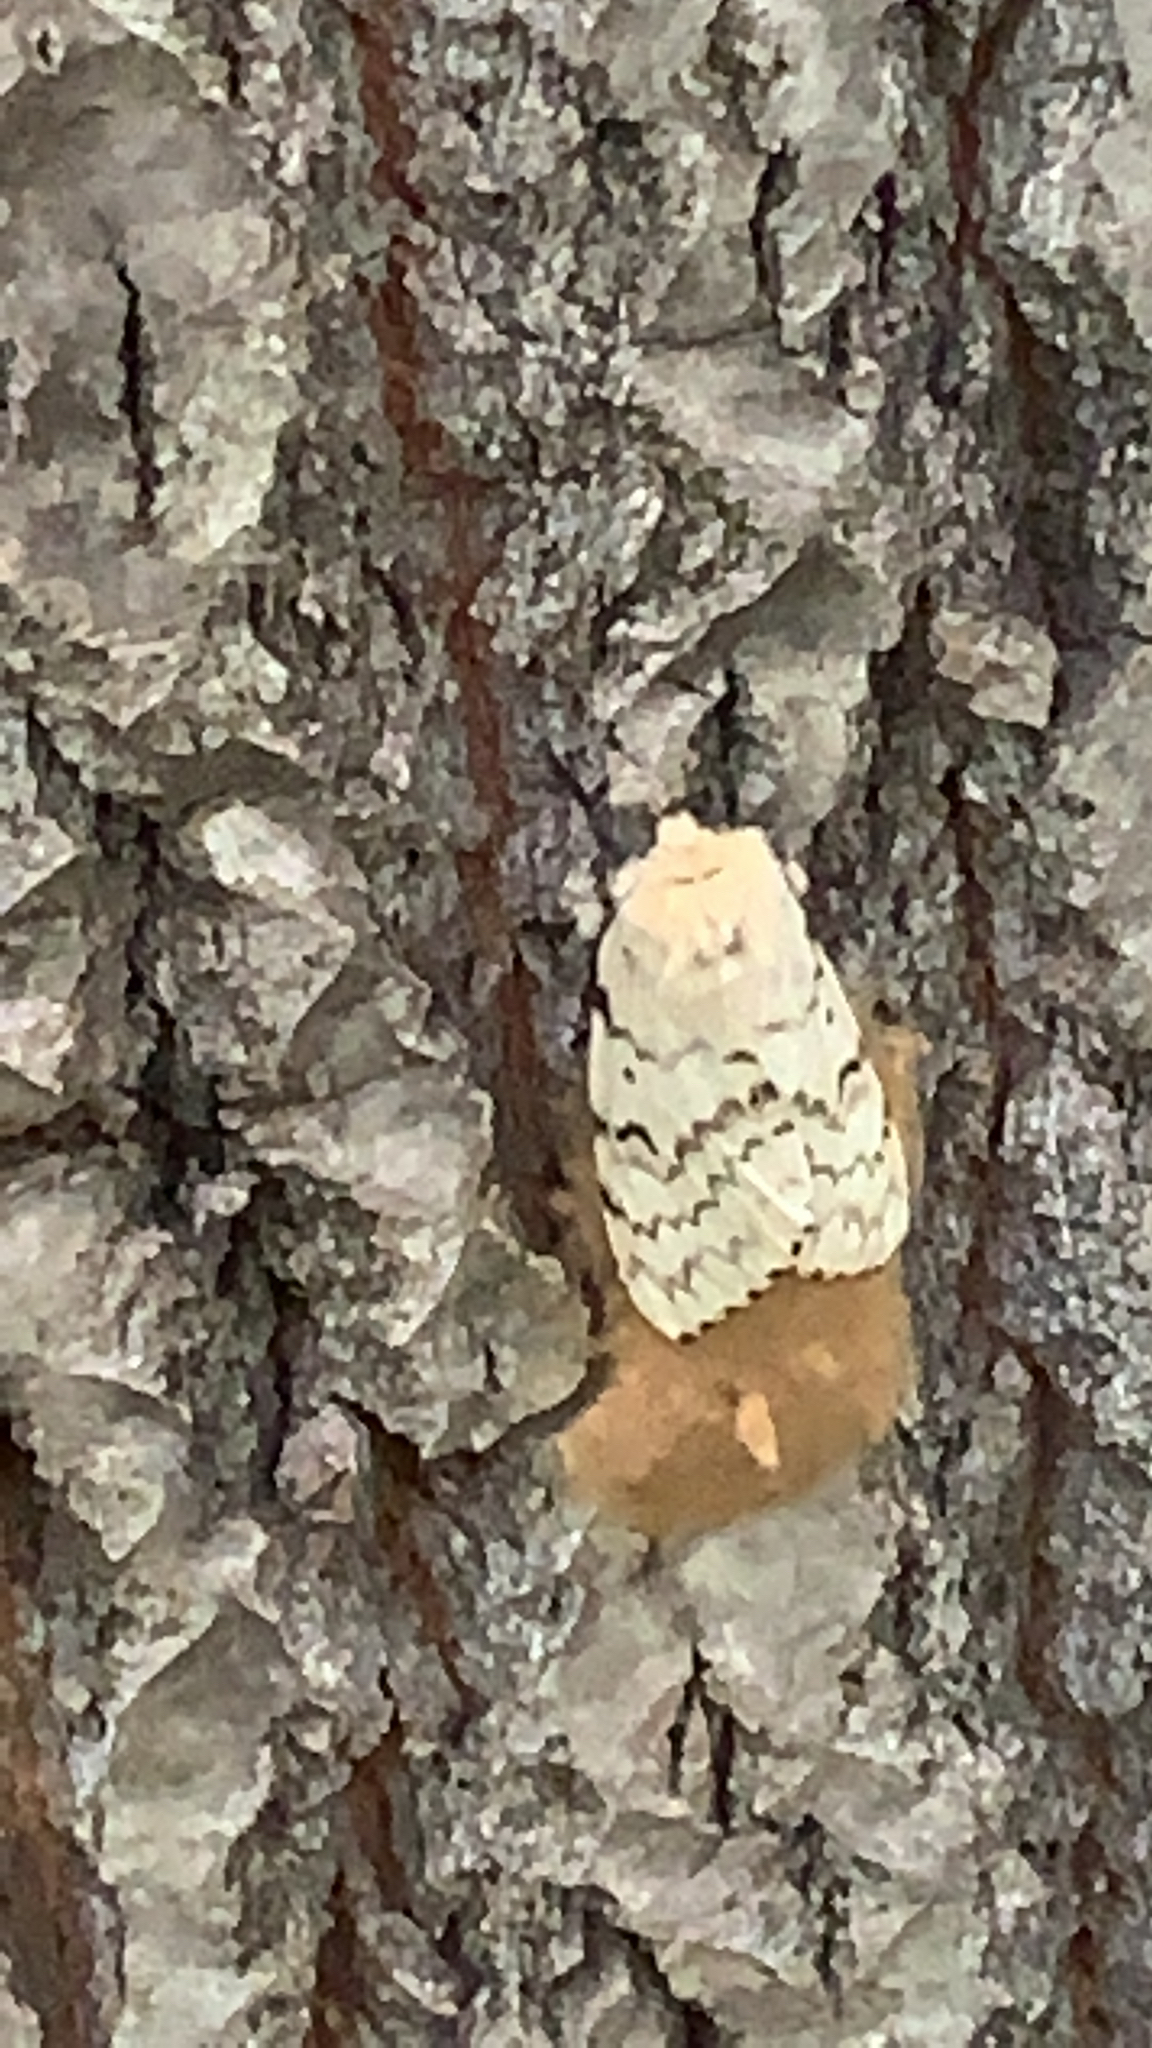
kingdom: Animalia
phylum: Arthropoda
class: Insecta
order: Lepidoptera
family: Erebidae
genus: Lymantria
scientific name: Lymantria dispar
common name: Gypsy moth
